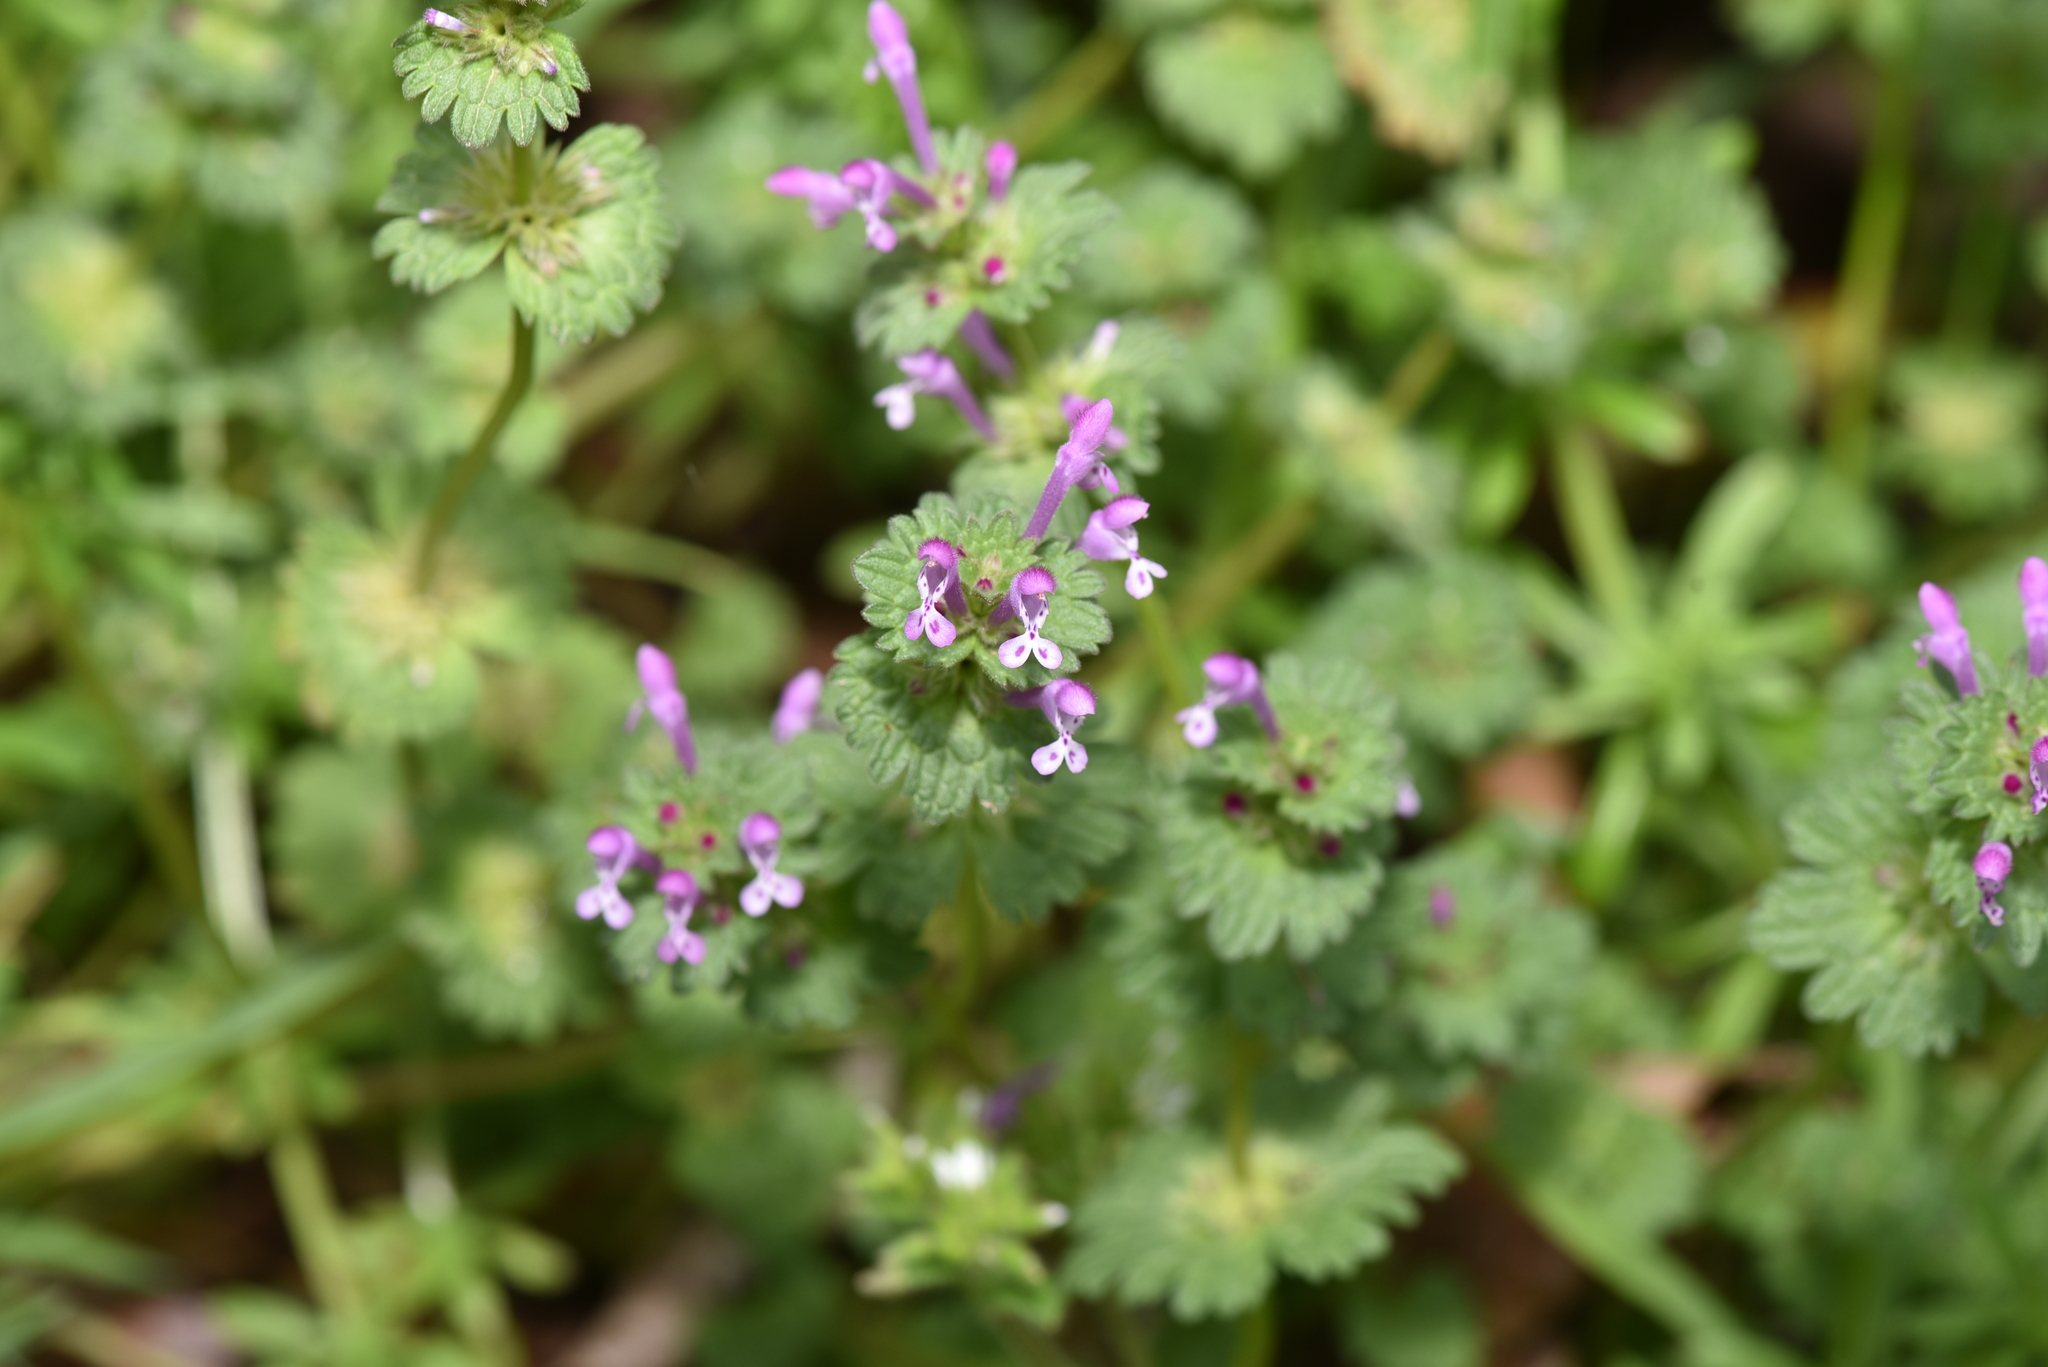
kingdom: Plantae
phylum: Tracheophyta
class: Magnoliopsida
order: Lamiales
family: Lamiaceae
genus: Lamium
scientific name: Lamium amplexicaule
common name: Henbit dead-nettle
